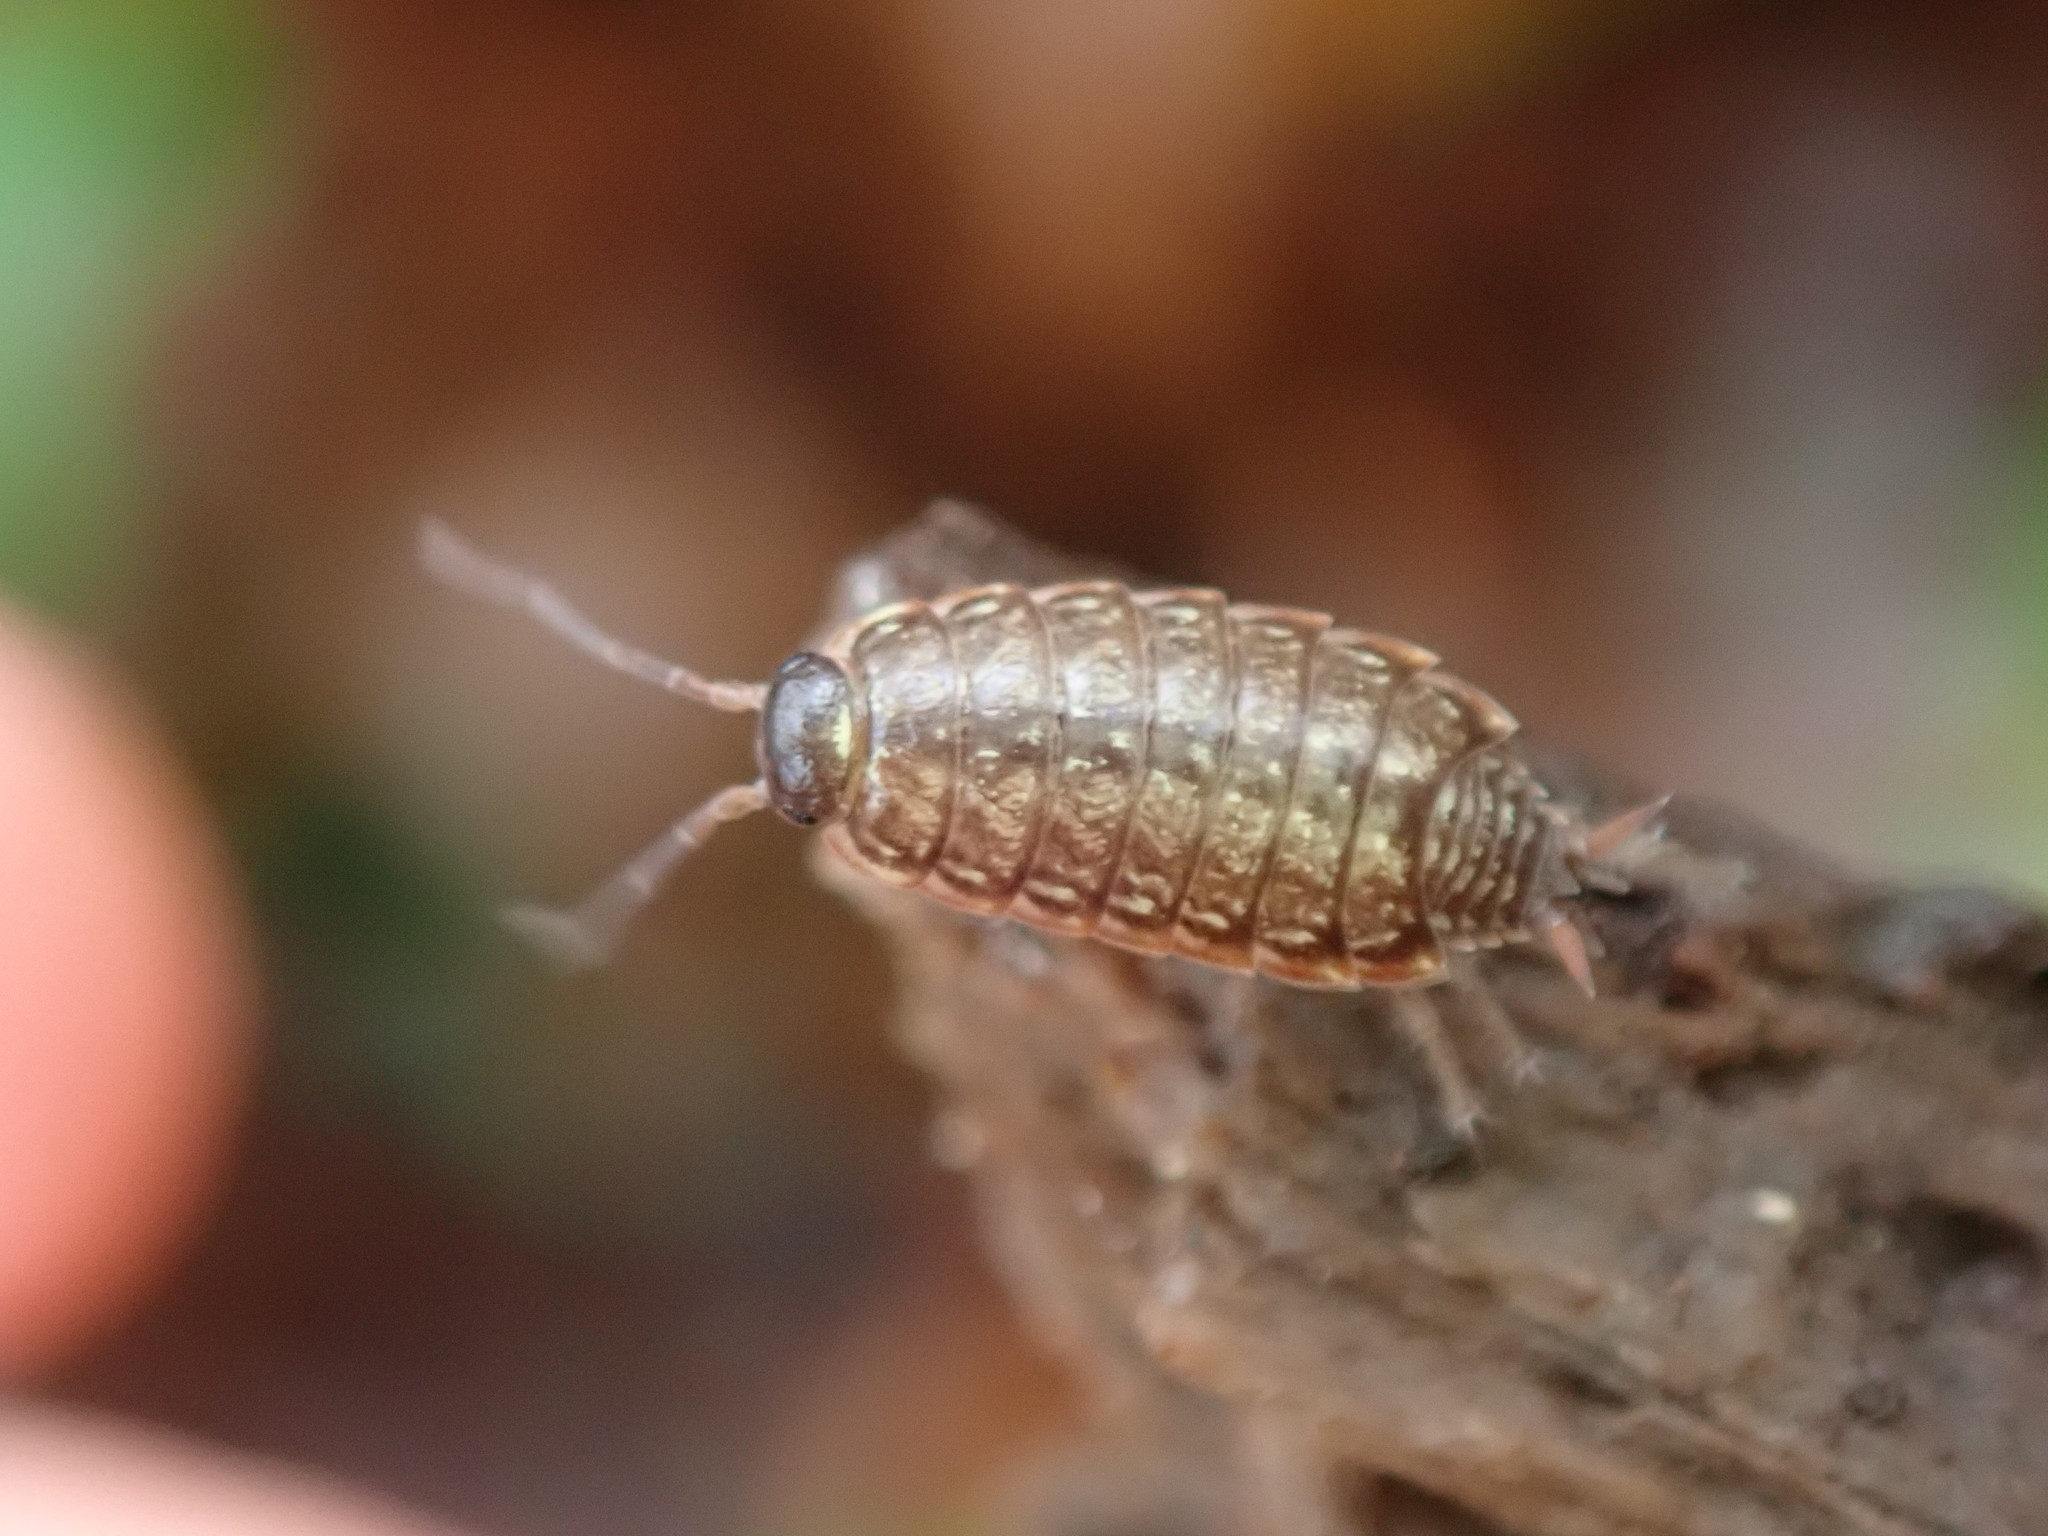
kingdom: Animalia
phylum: Arthropoda
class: Malacostraca
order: Isopoda
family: Philosciidae
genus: Philoscia
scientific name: Philoscia muscorum
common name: Common striped woodlouse
